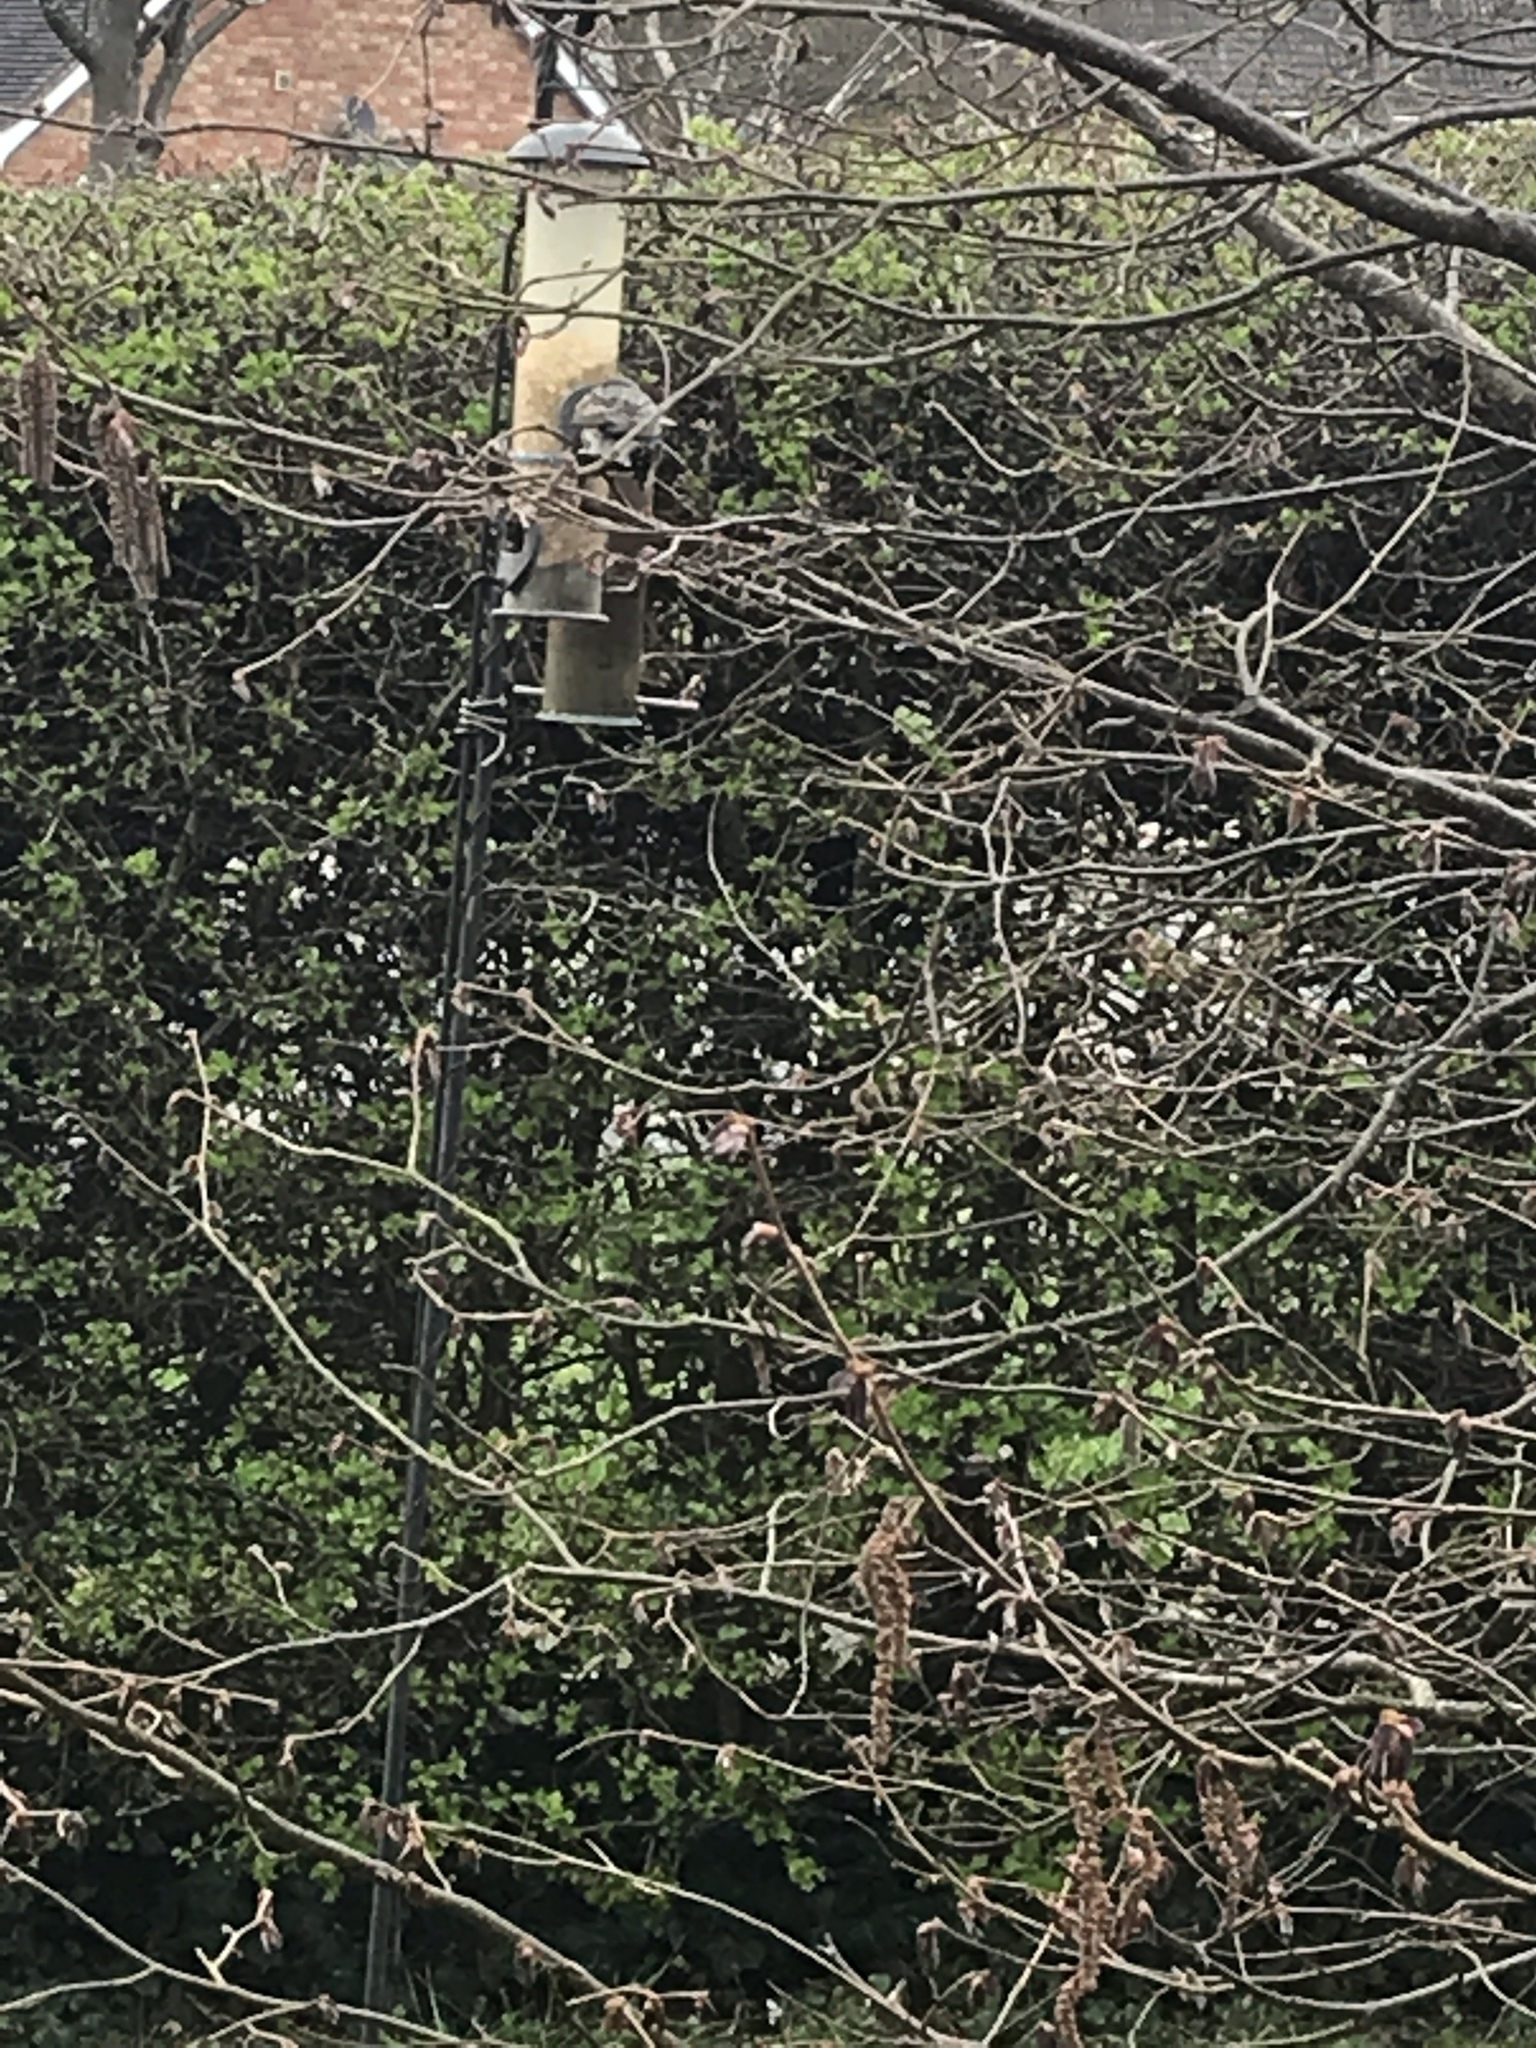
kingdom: Animalia
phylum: Chordata
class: Aves
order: Passeriformes
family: Sturnidae
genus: Sturnus
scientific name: Sturnus vulgaris
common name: Common starling
